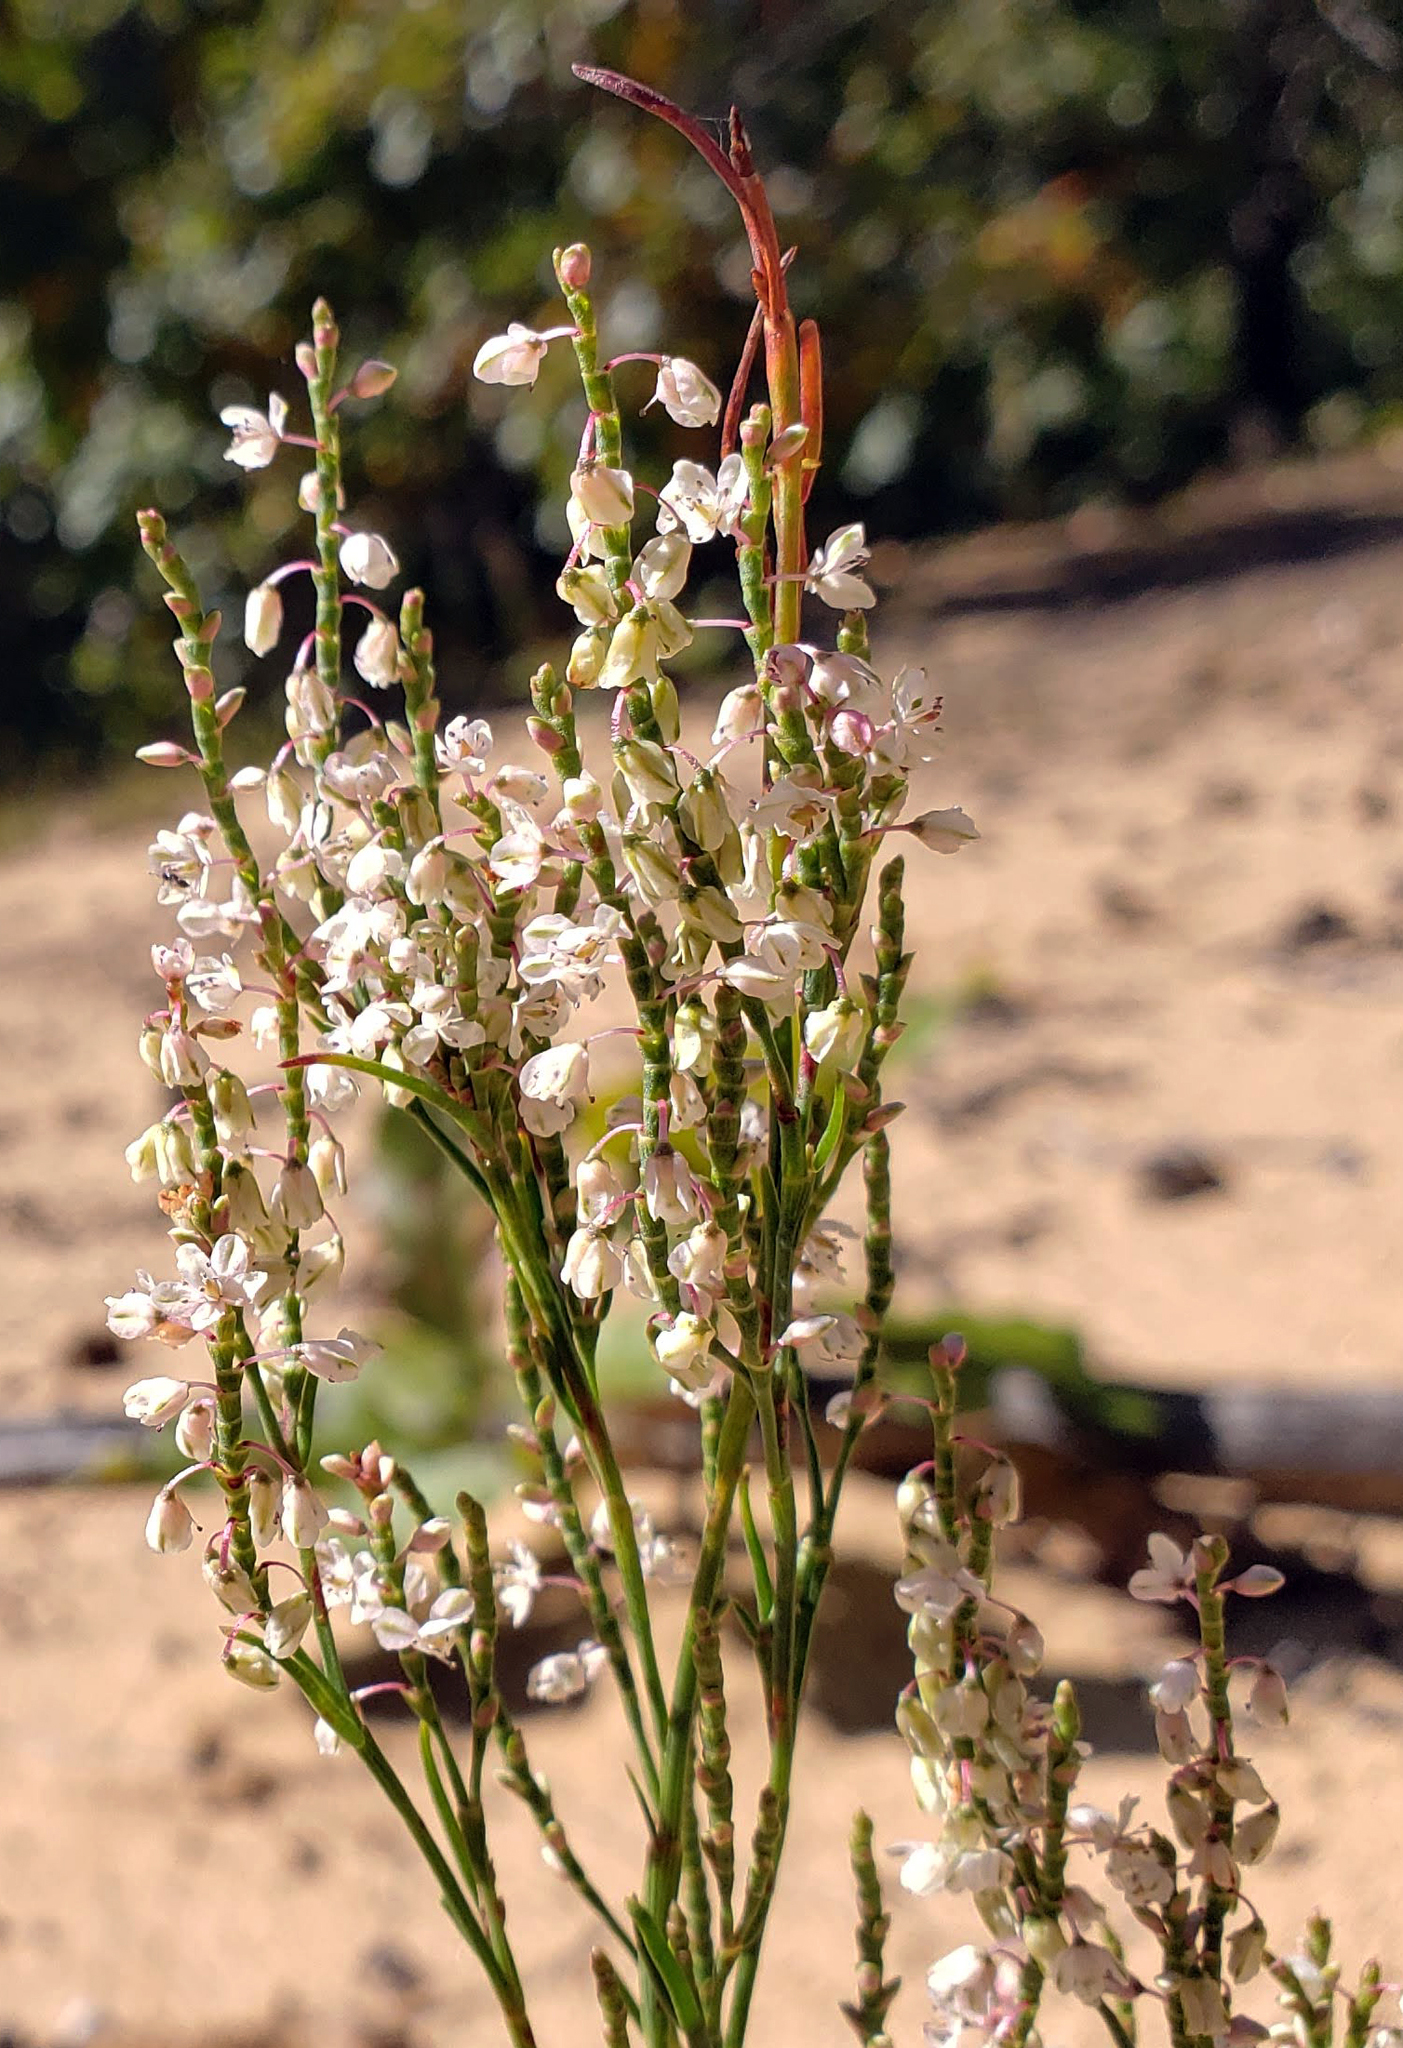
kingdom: Plantae
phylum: Tracheophyta
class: Magnoliopsida
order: Caryophyllales
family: Polygonaceae
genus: Polygonella
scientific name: Polygonella articulata
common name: Coastal jointweed
